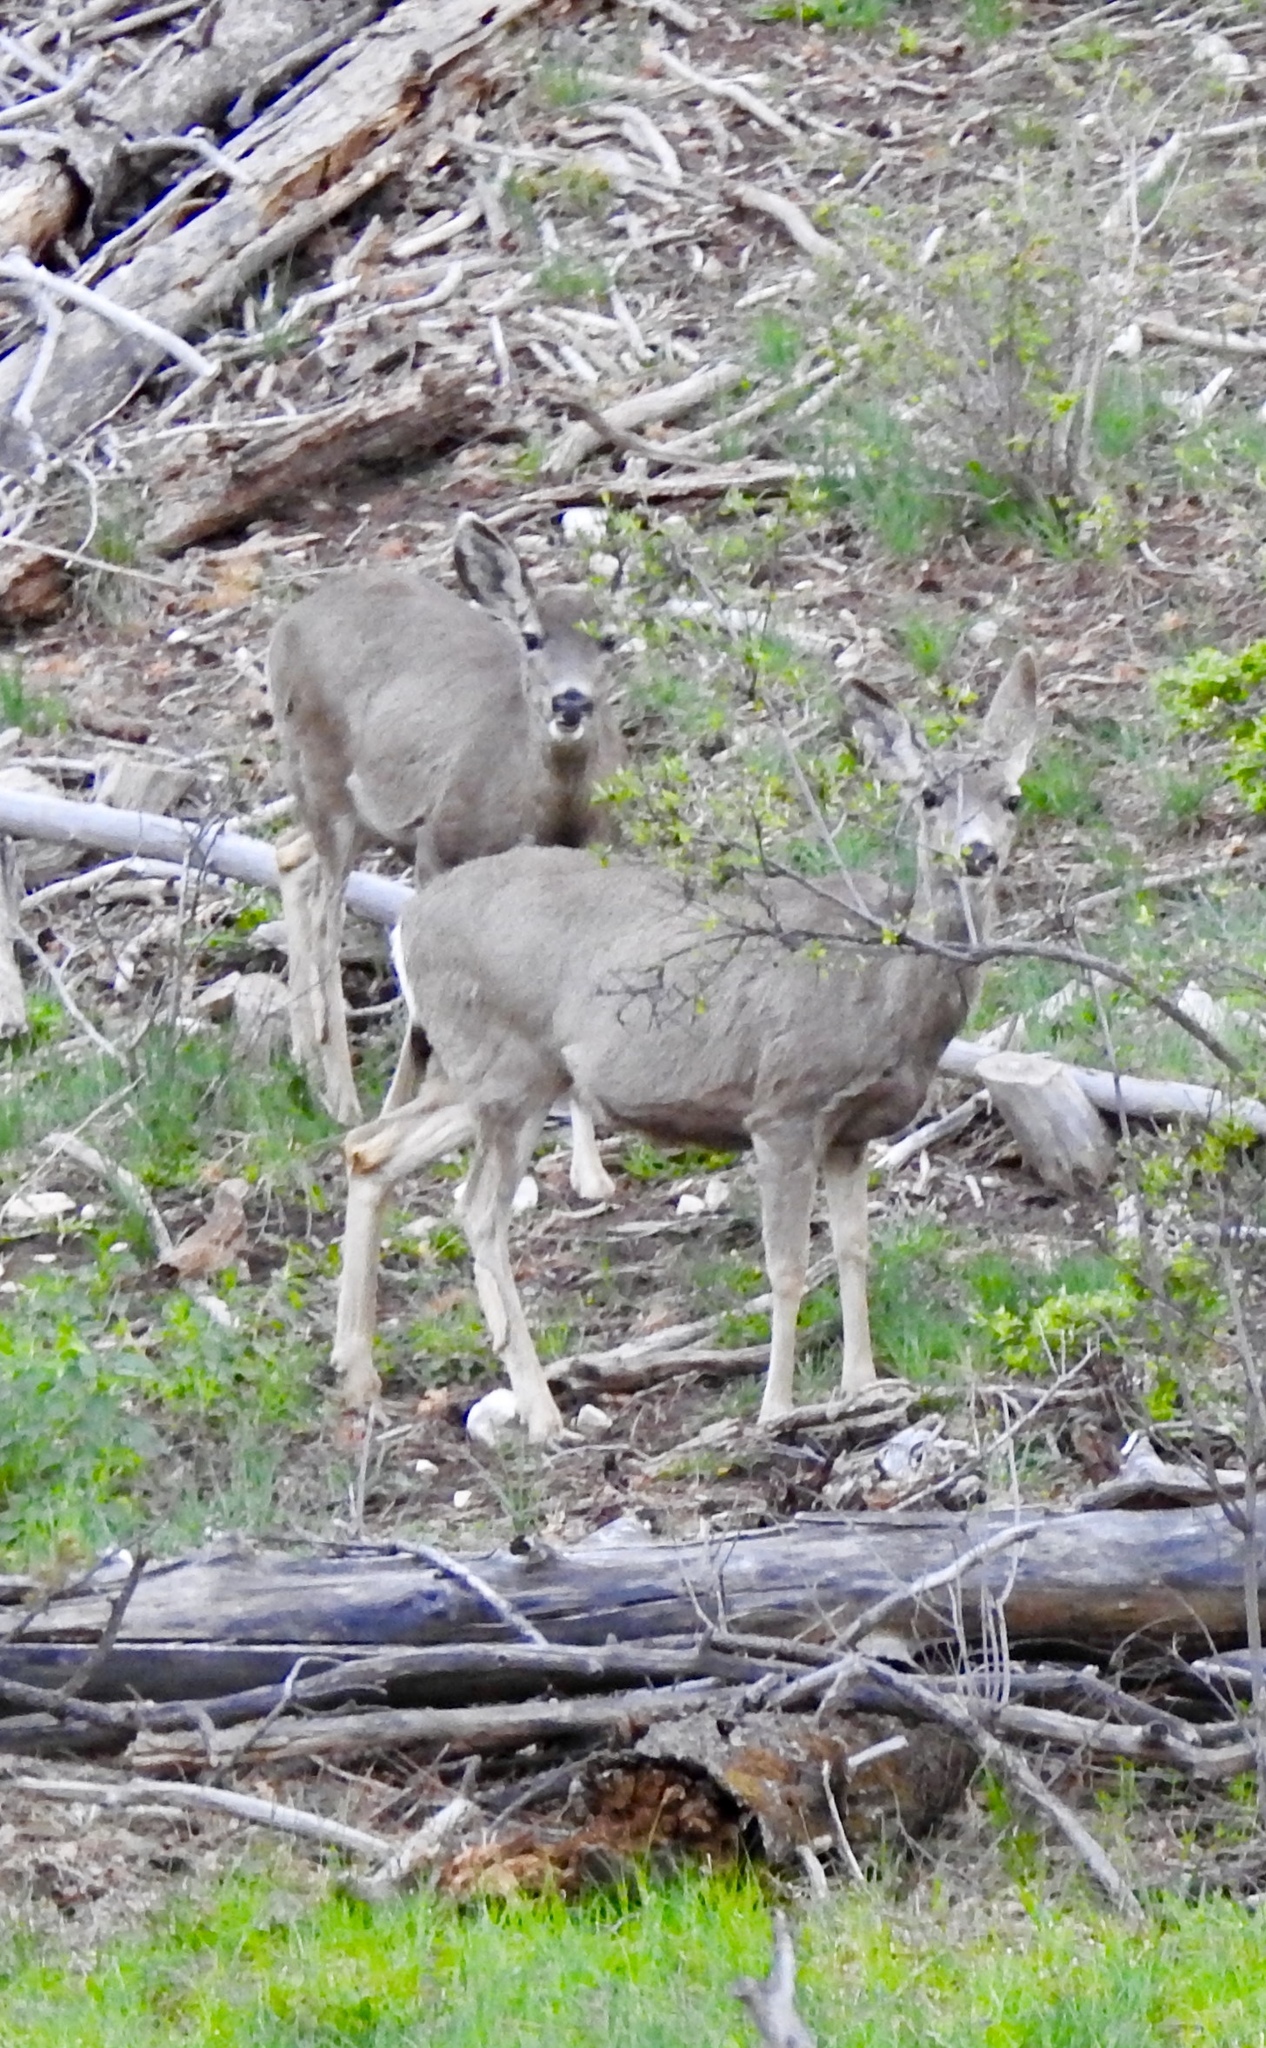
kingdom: Animalia
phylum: Chordata
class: Mammalia
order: Artiodactyla
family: Cervidae
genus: Odocoileus
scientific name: Odocoileus hemionus
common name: Mule deer
